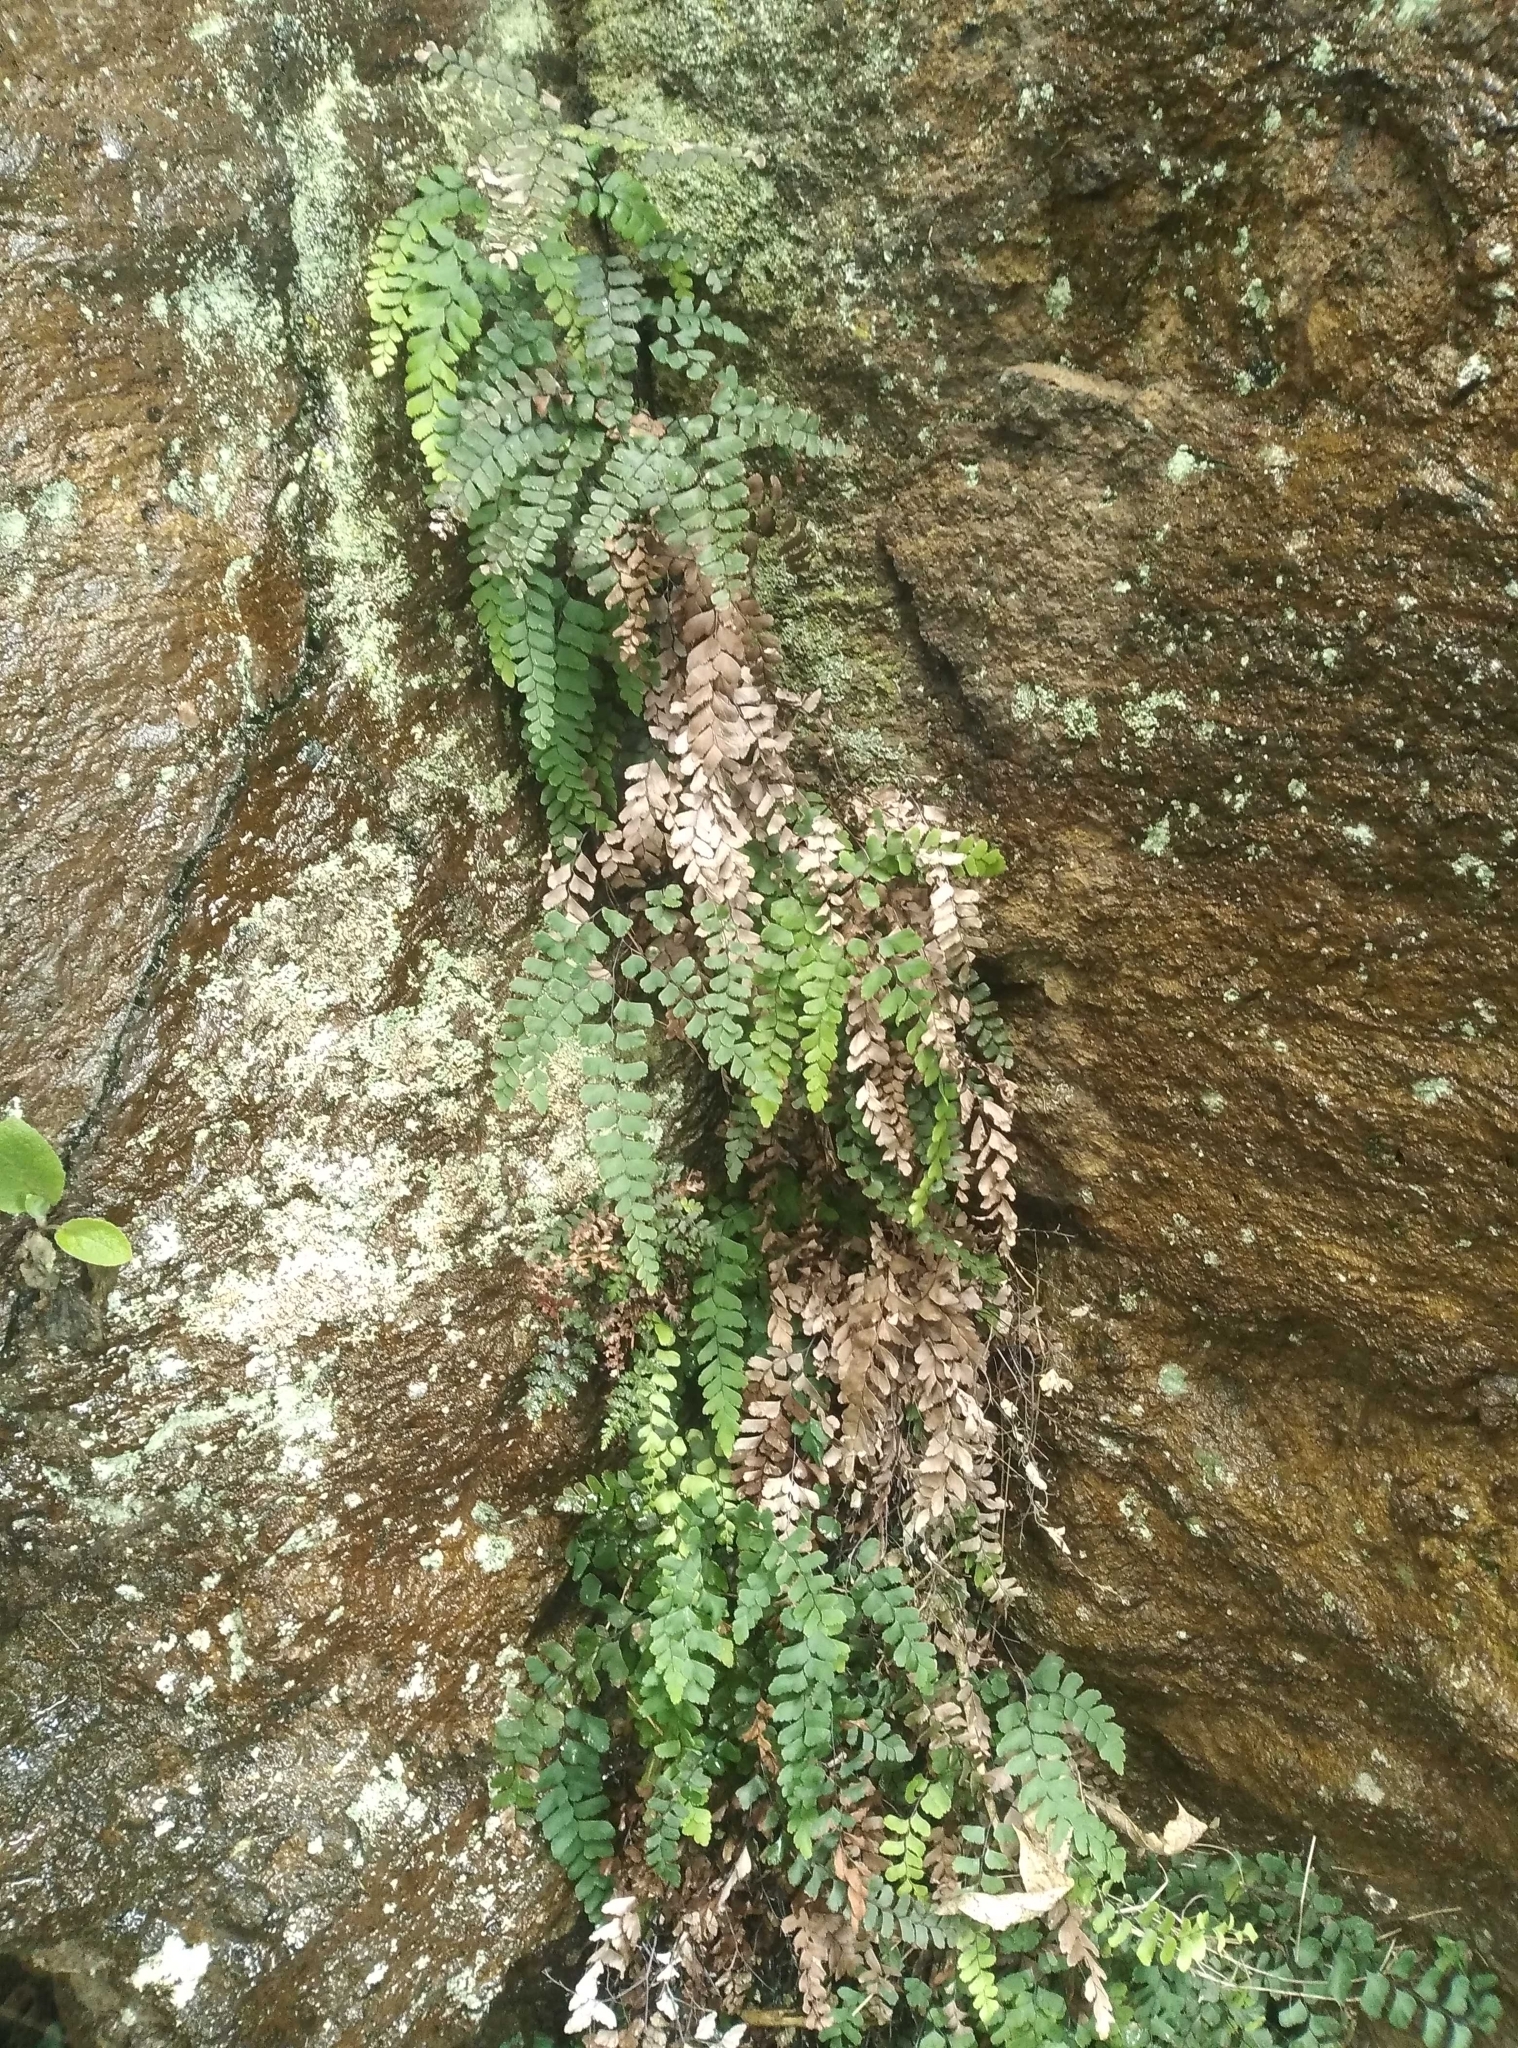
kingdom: Plantae
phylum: Tracheophyta
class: Polypodiopsida
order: Polypodiales
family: Pteridaceae
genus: Adiantum
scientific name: Adiantum cunninghamii
